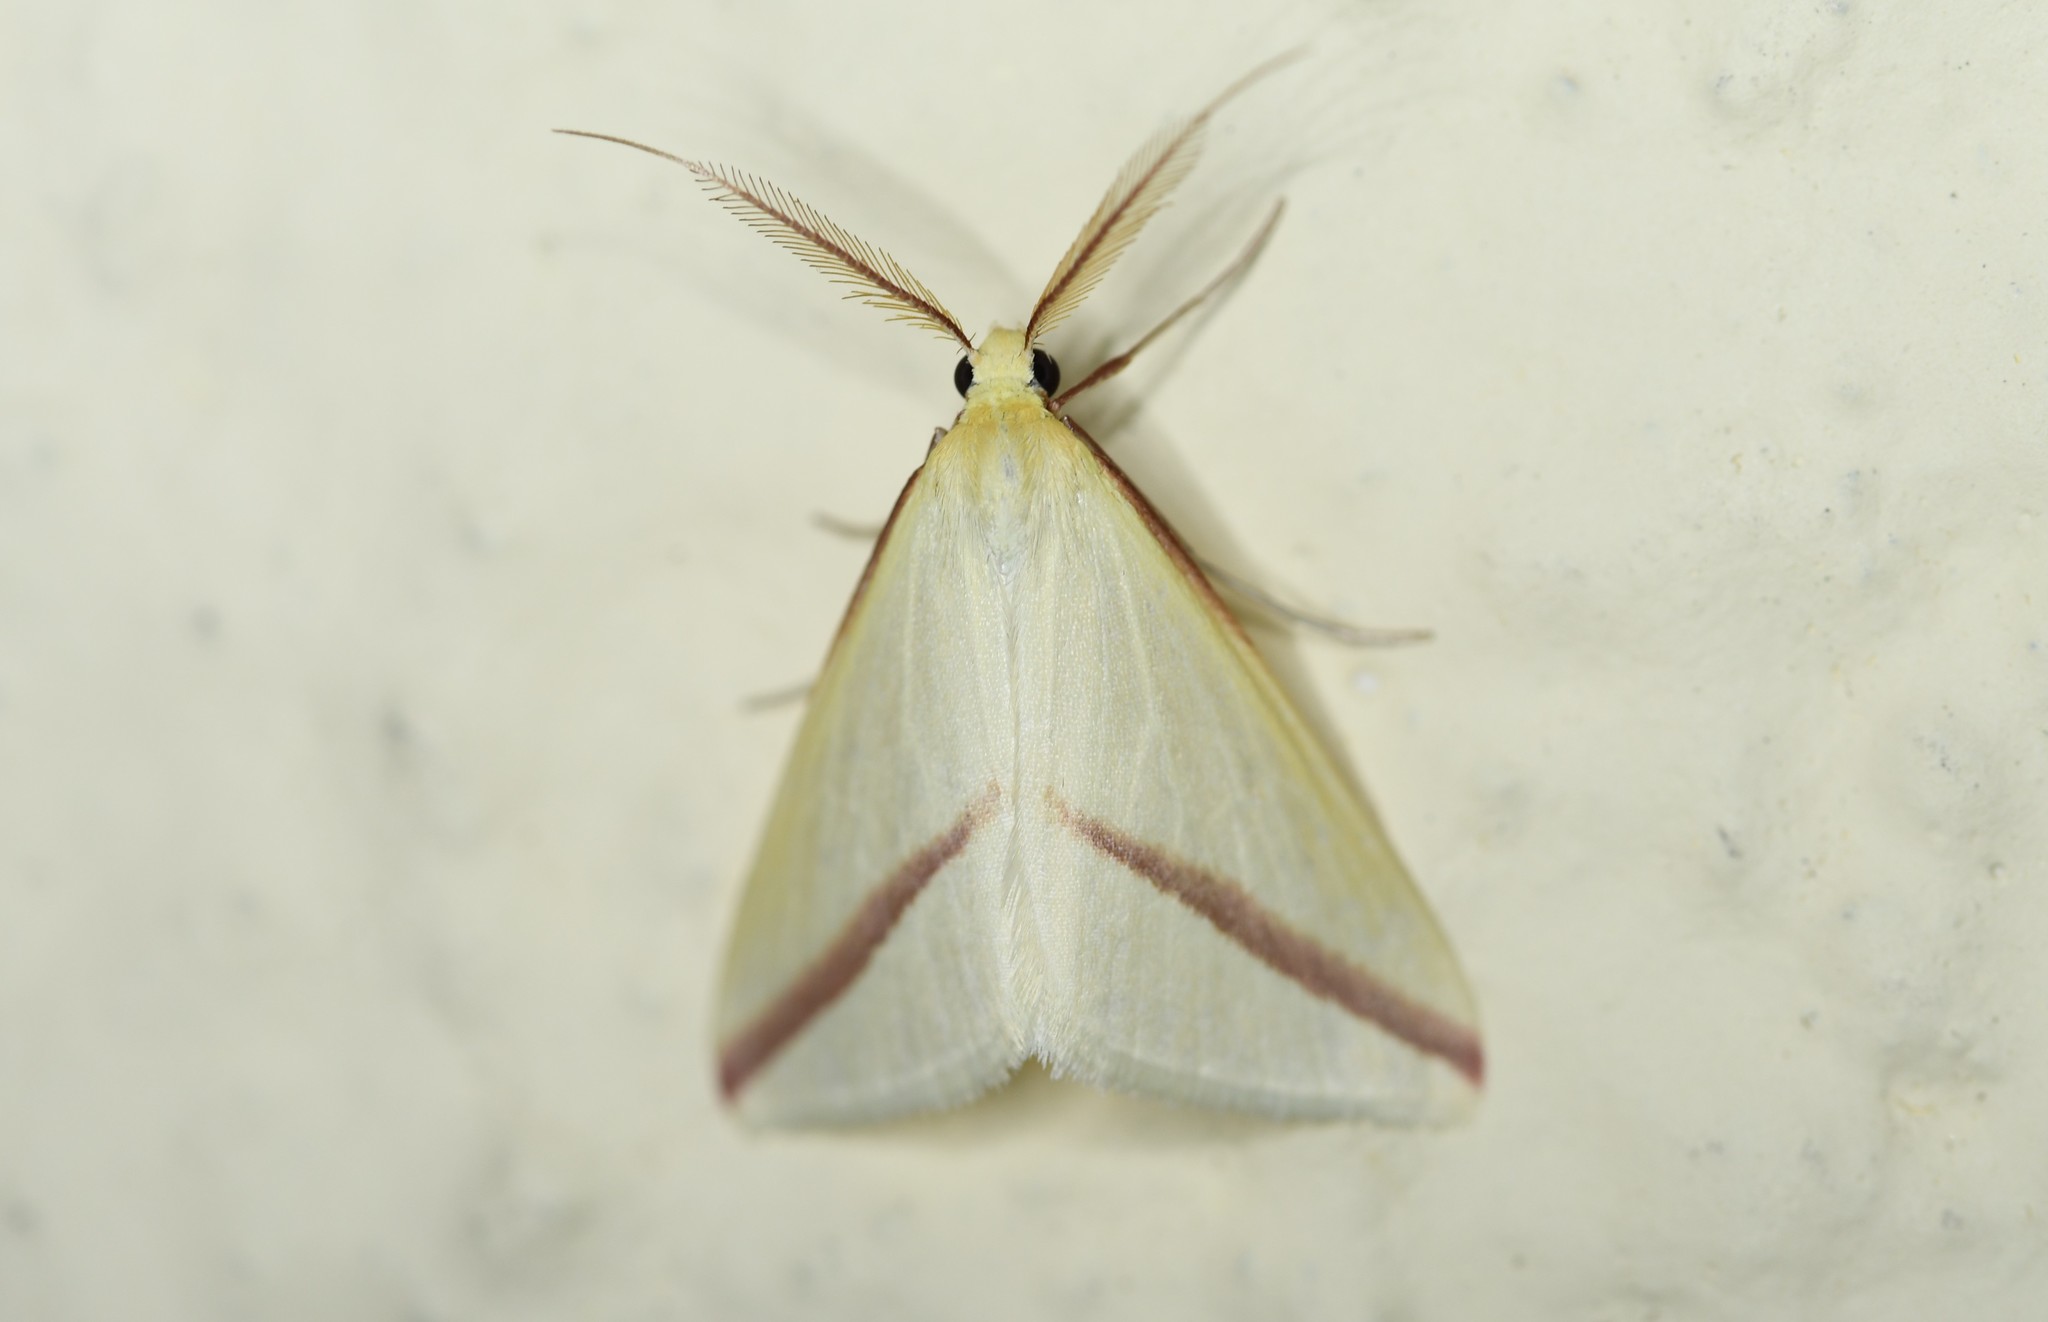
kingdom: Animalia
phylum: Arthropoda
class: Insecta
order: Lepidoptera
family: Geometridae
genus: Rhodometra
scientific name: Rhodometra sacraria
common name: Vestal
